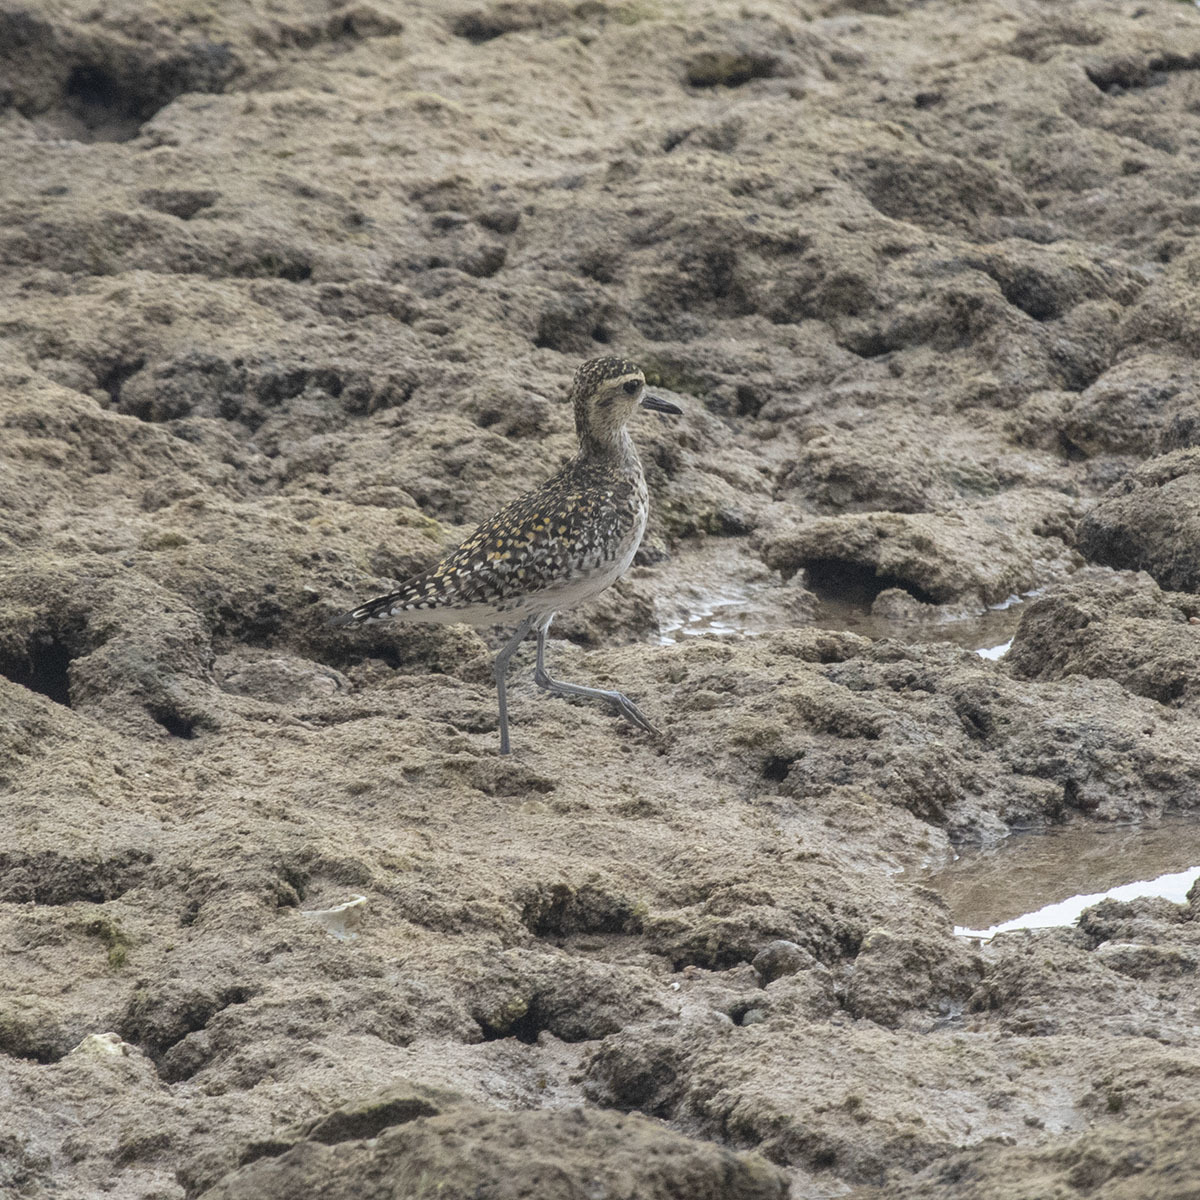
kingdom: Animalia
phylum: Chordata
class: Aves
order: Charadriiformes
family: Charadriidae
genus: Pluvialis
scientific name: Pluvialis fulva
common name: Pacific golden plover
